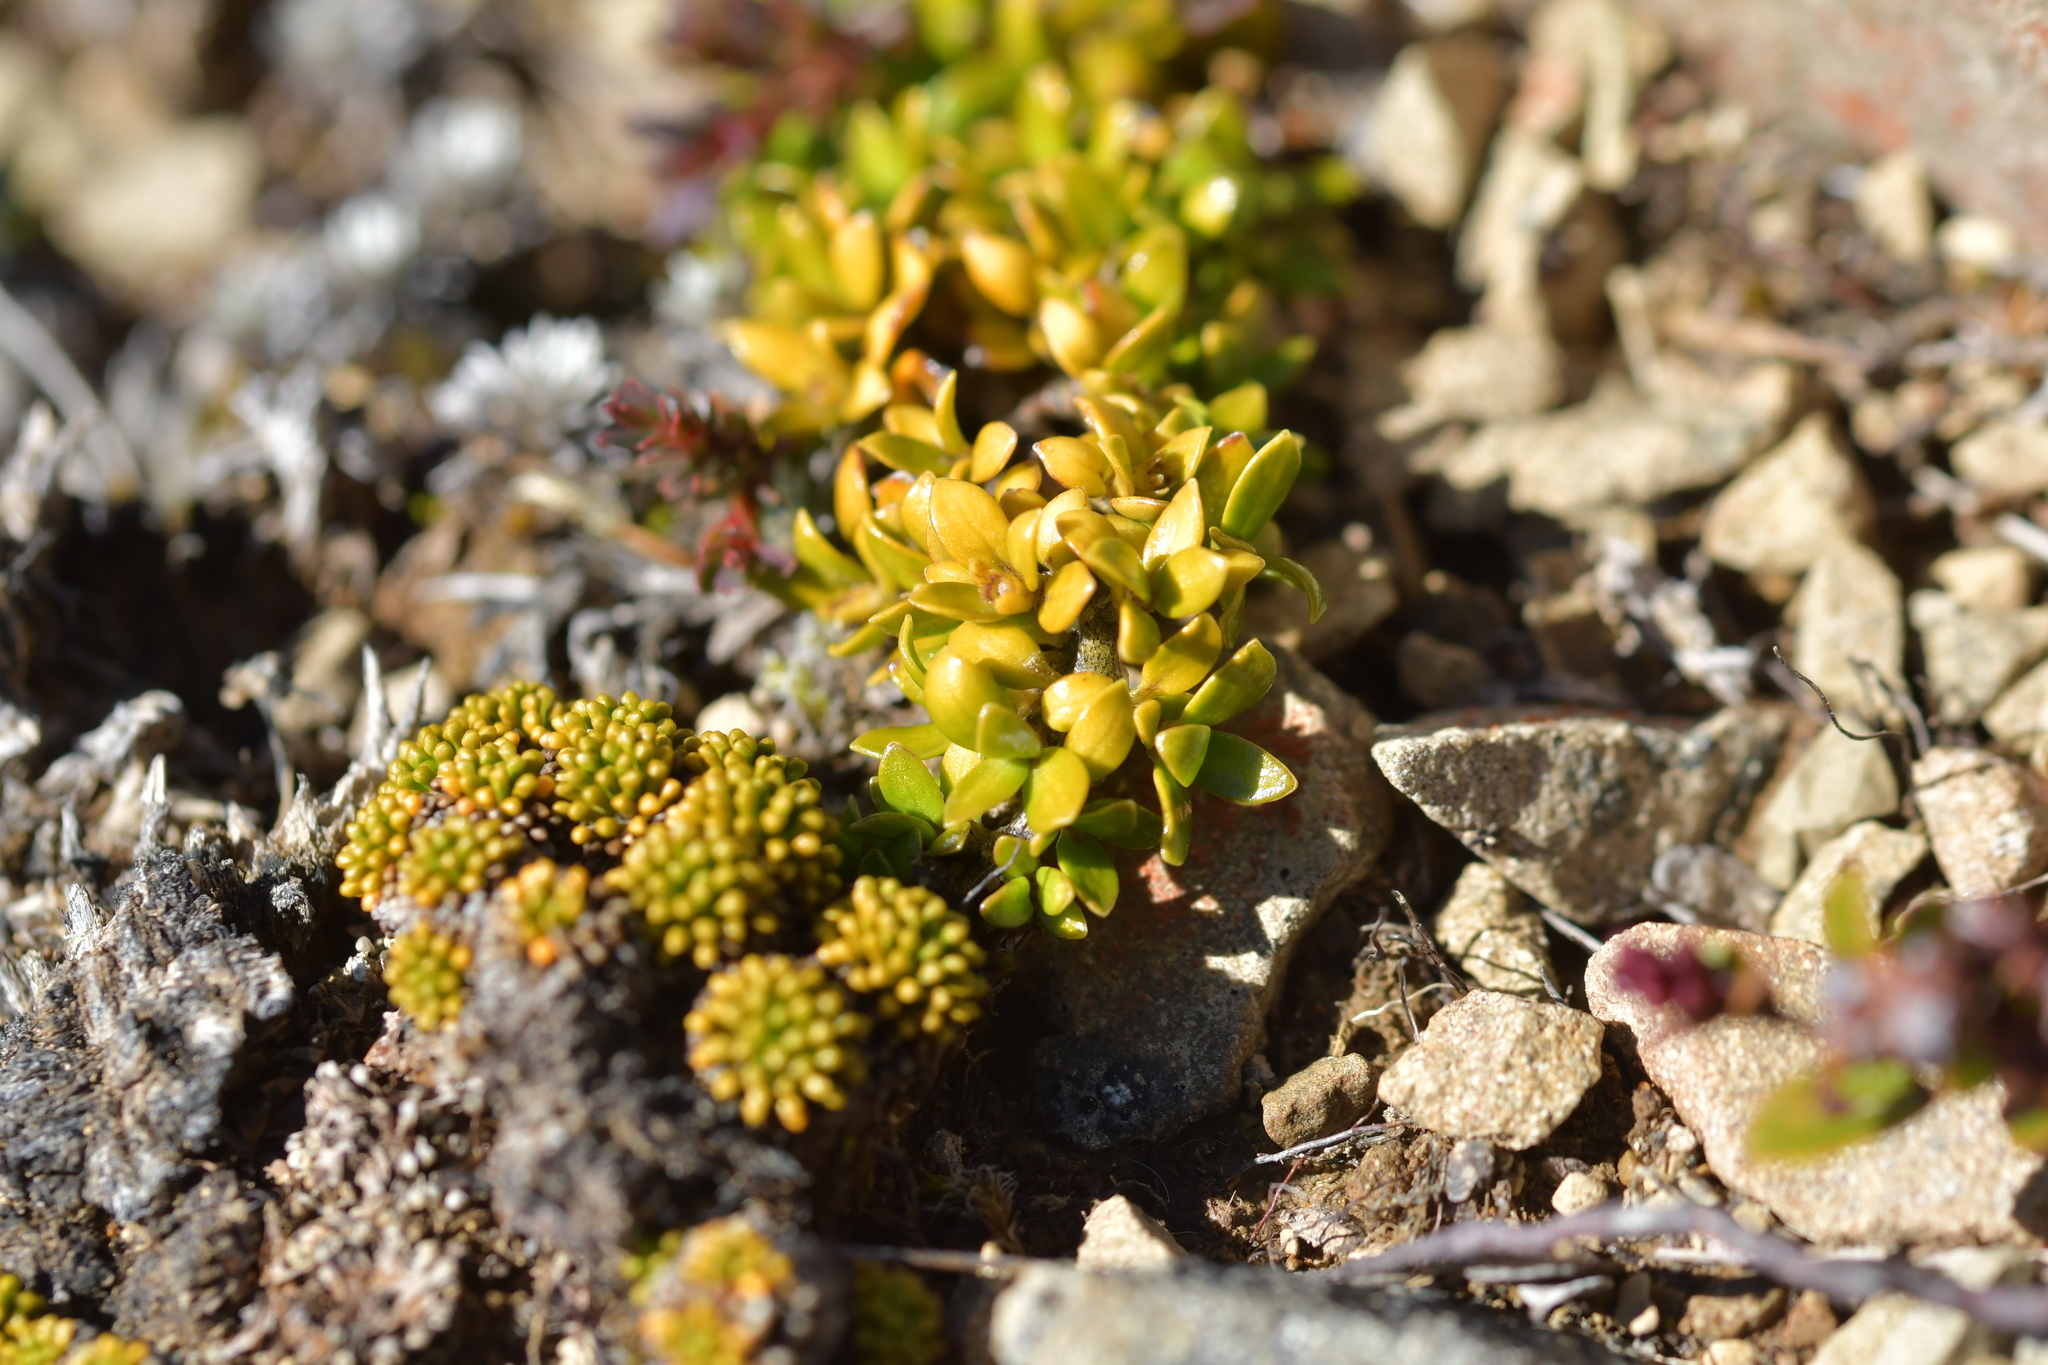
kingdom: Plantae
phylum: Tracheophyta
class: Magnoliopsida
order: Gentianales
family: Rubiaceae
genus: Coprosma
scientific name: Coprosma perpusilla
